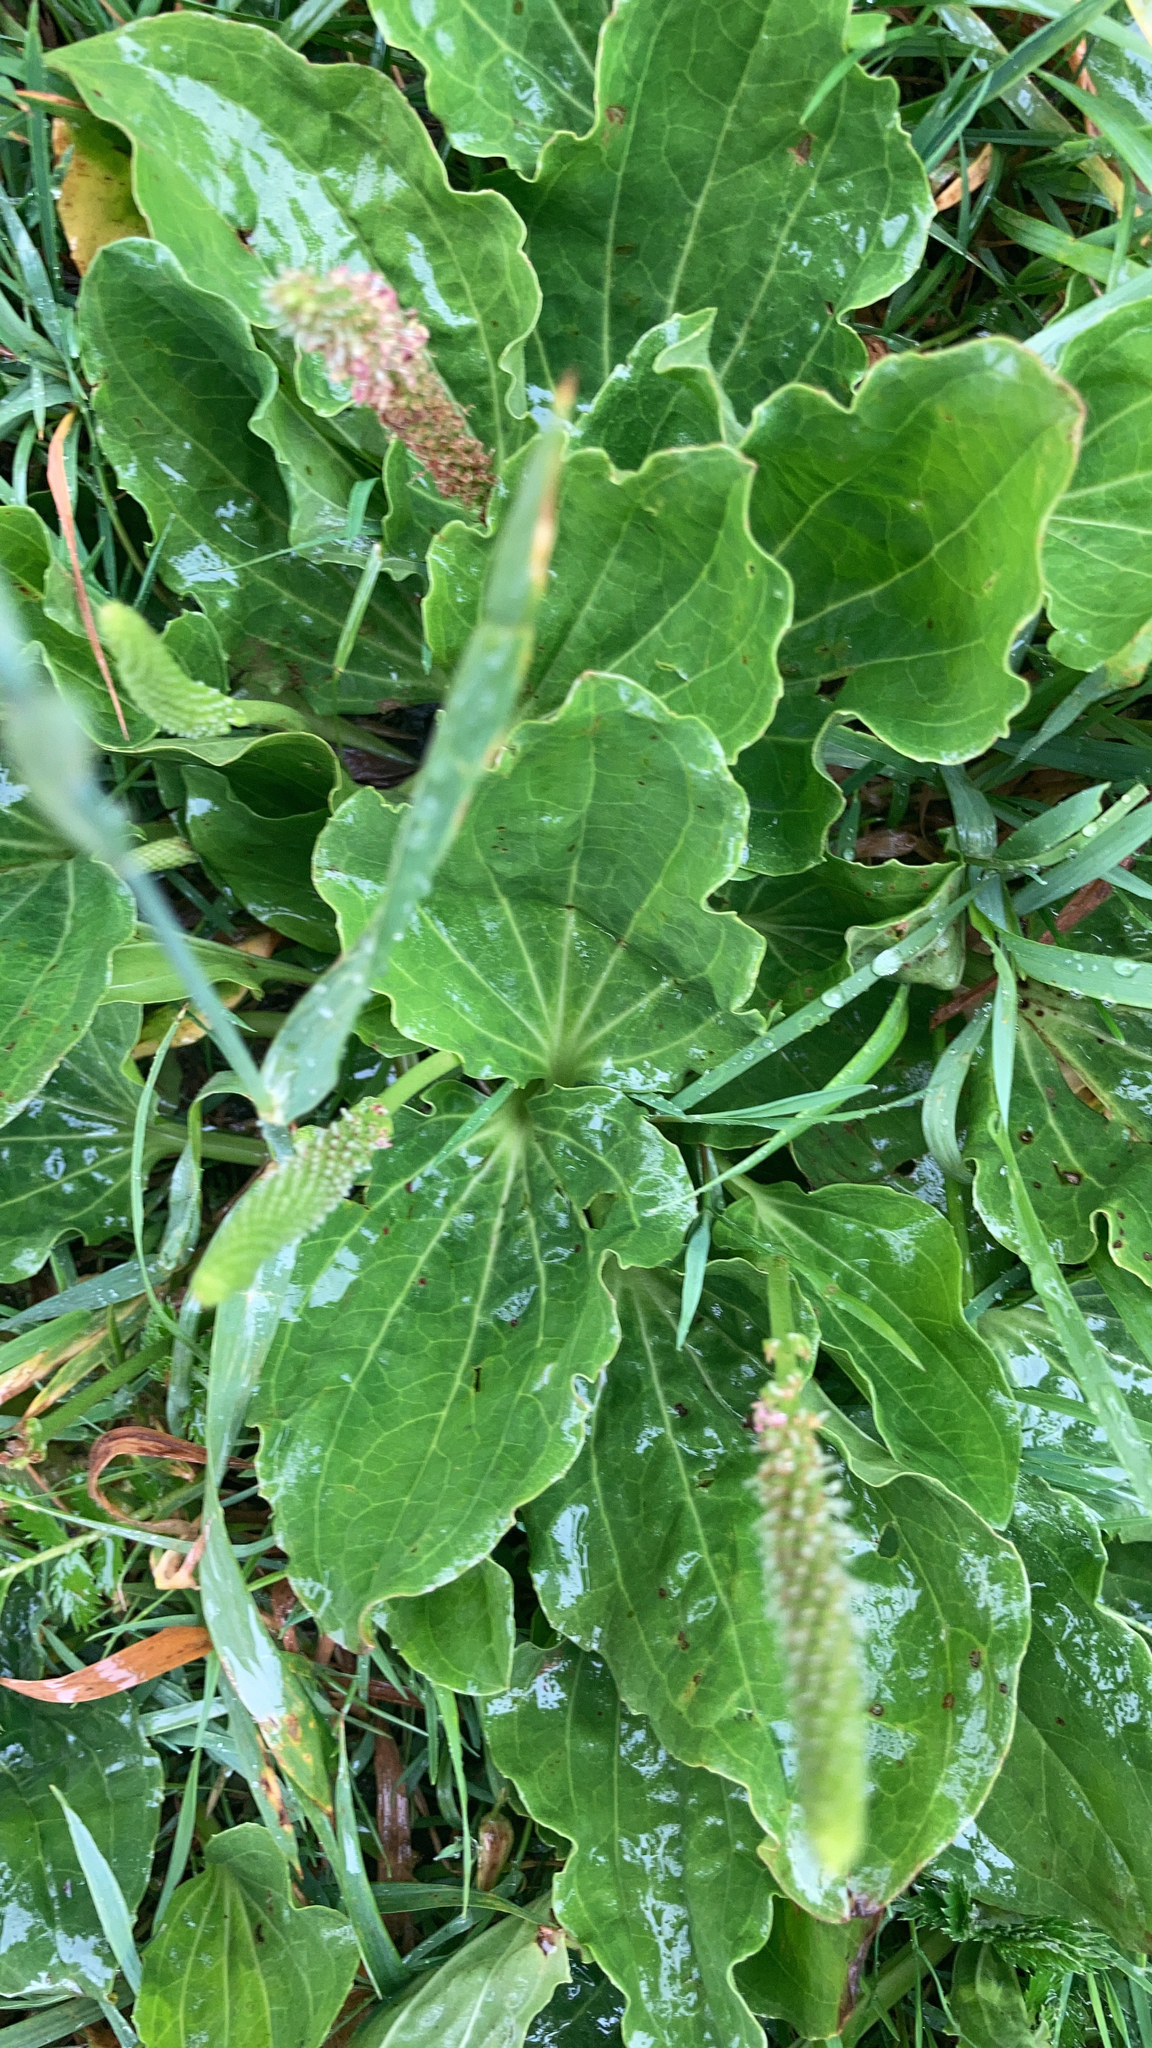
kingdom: Plantae
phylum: Tracheophyta
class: Magnoliopsida
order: Lamiales
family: Plantaginaceae
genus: Plantago
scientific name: Plantago major
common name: Common plantain
